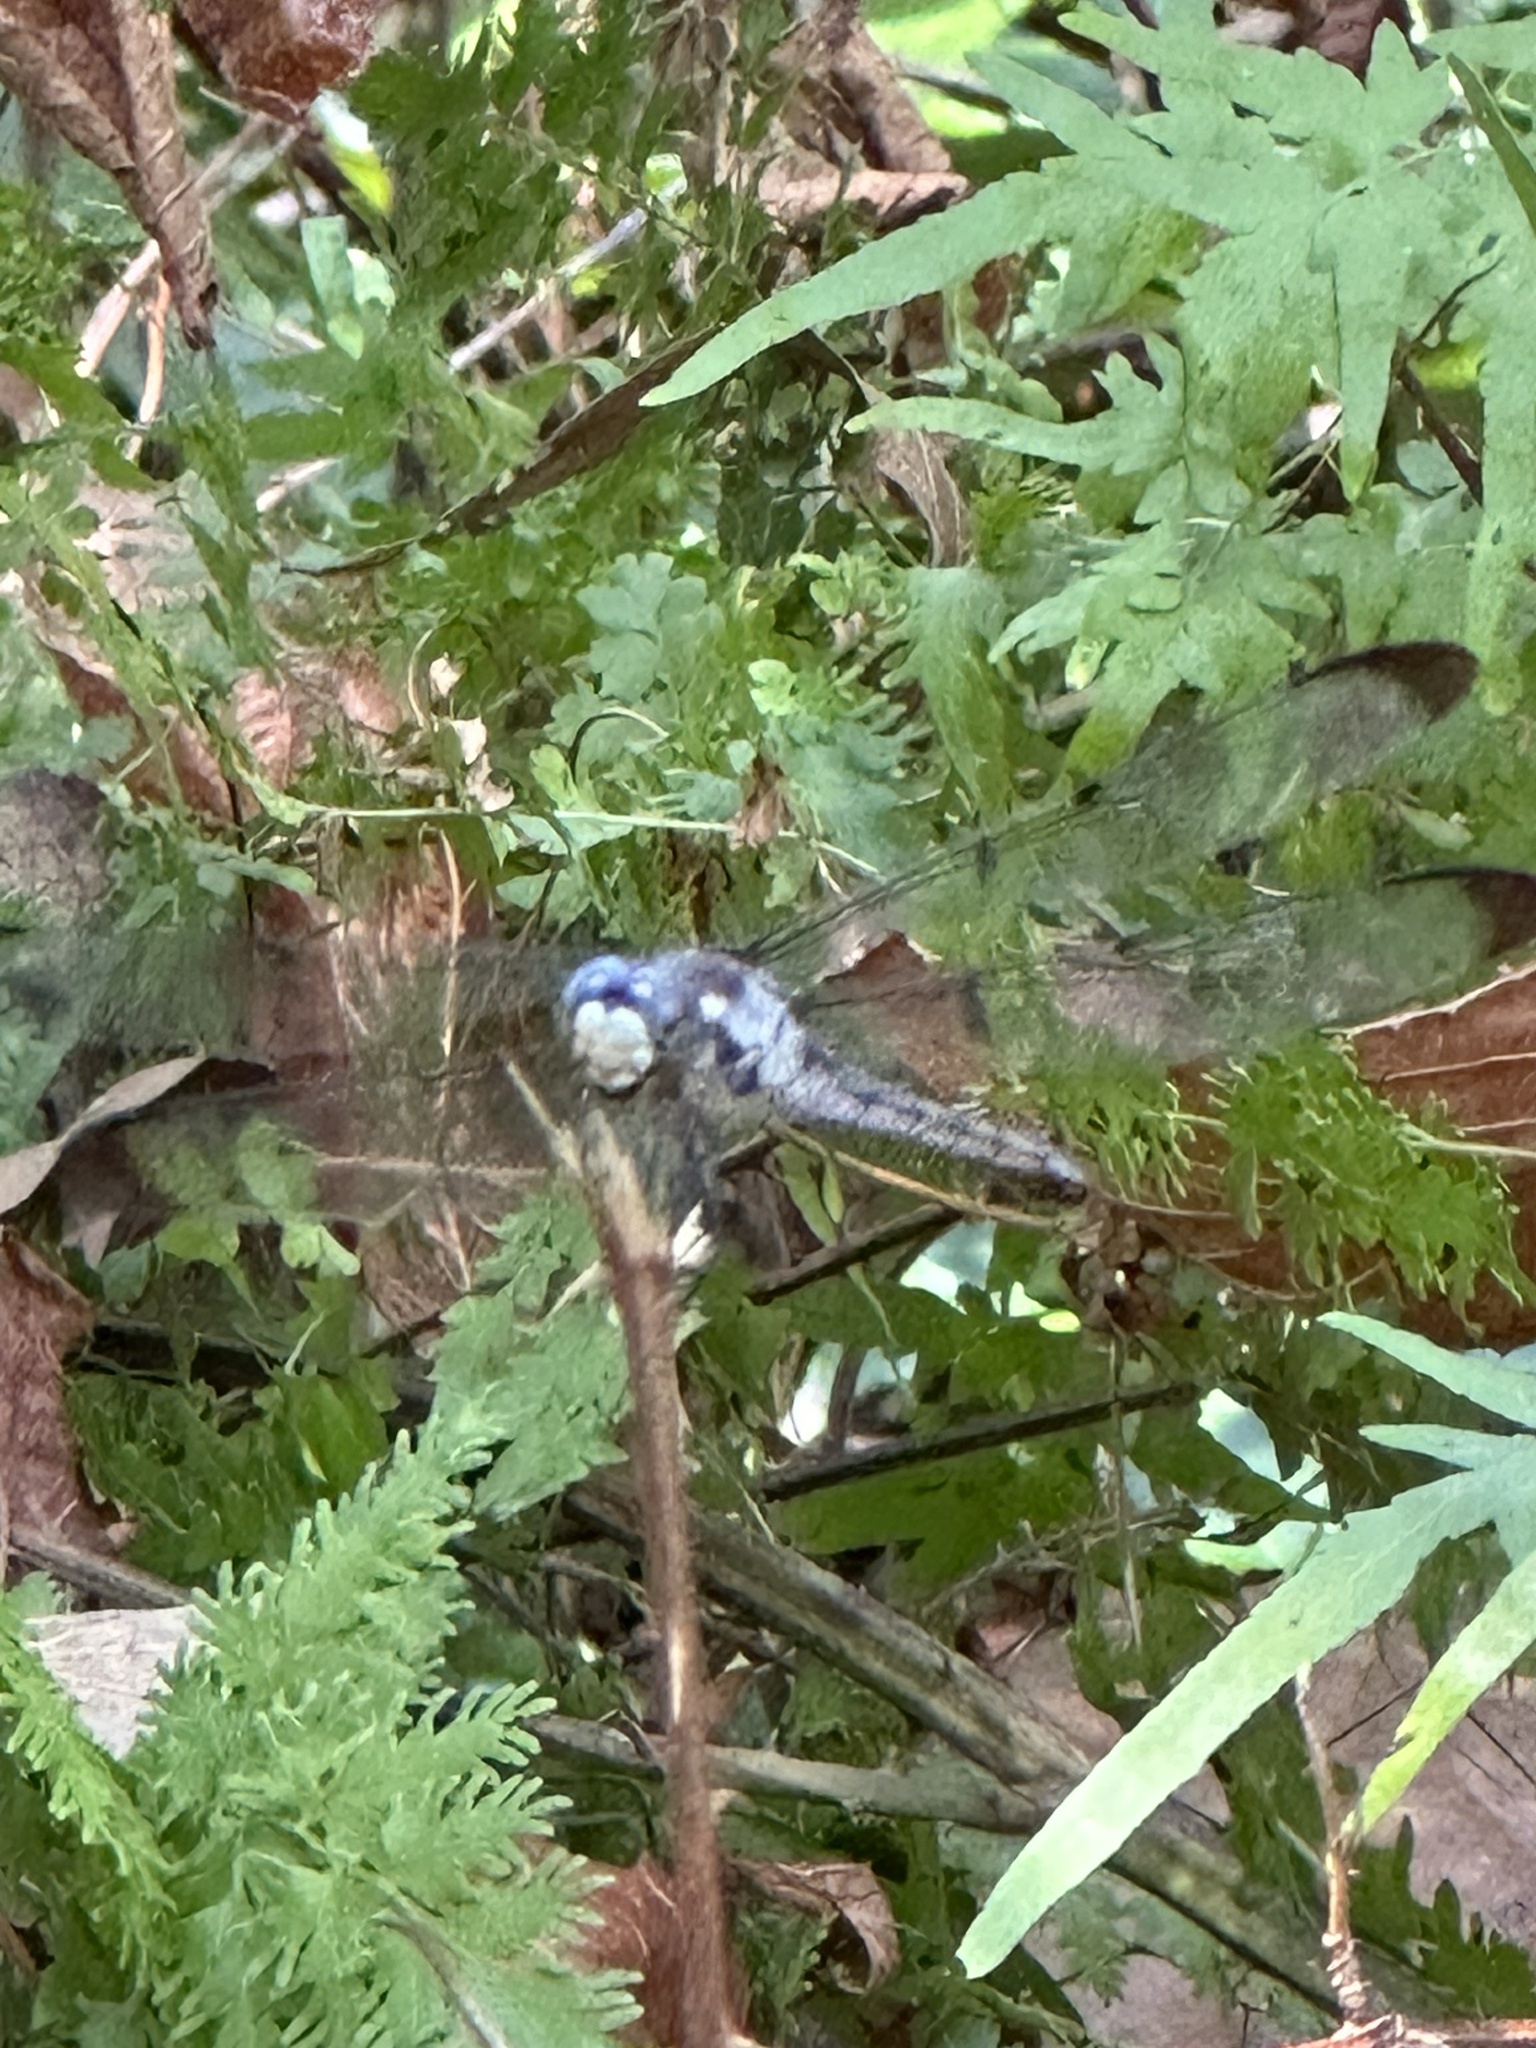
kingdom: Animalia
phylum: Arthropoda
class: Insecta
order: Odonata
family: Libellulidae
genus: Libellula
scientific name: Libellula vibrans
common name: Great blue skimmer
